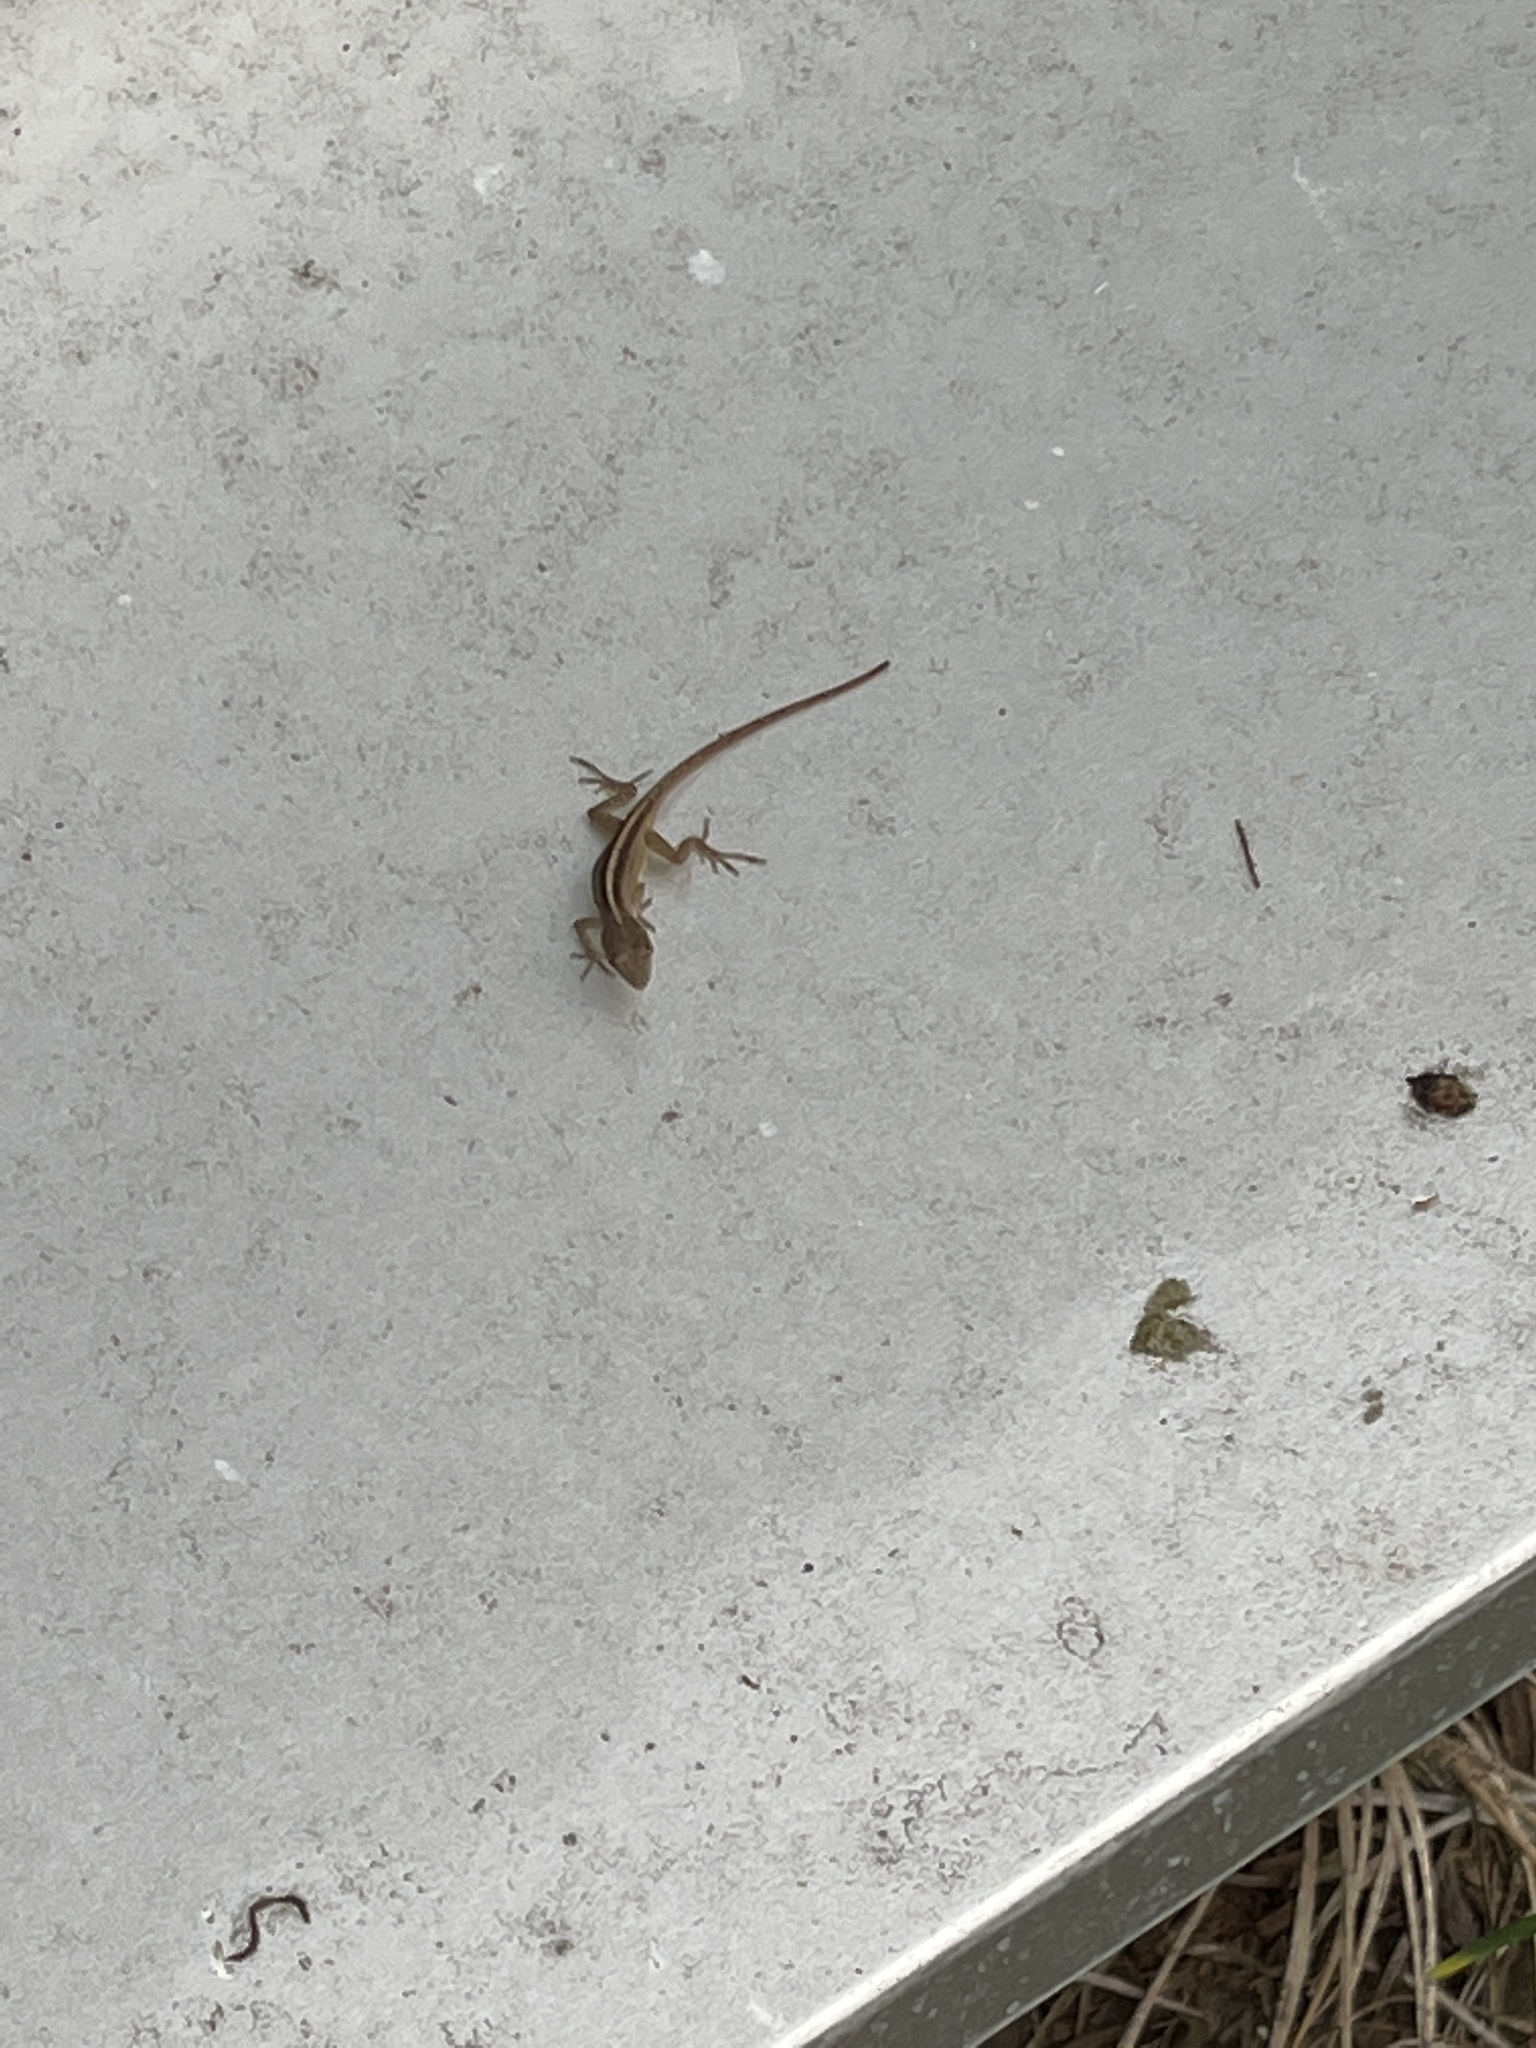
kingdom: Animalia
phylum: Chordata
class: Squamata
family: Dactyloidae
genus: Anolis
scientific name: Anolis sagrei
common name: Brown anole
